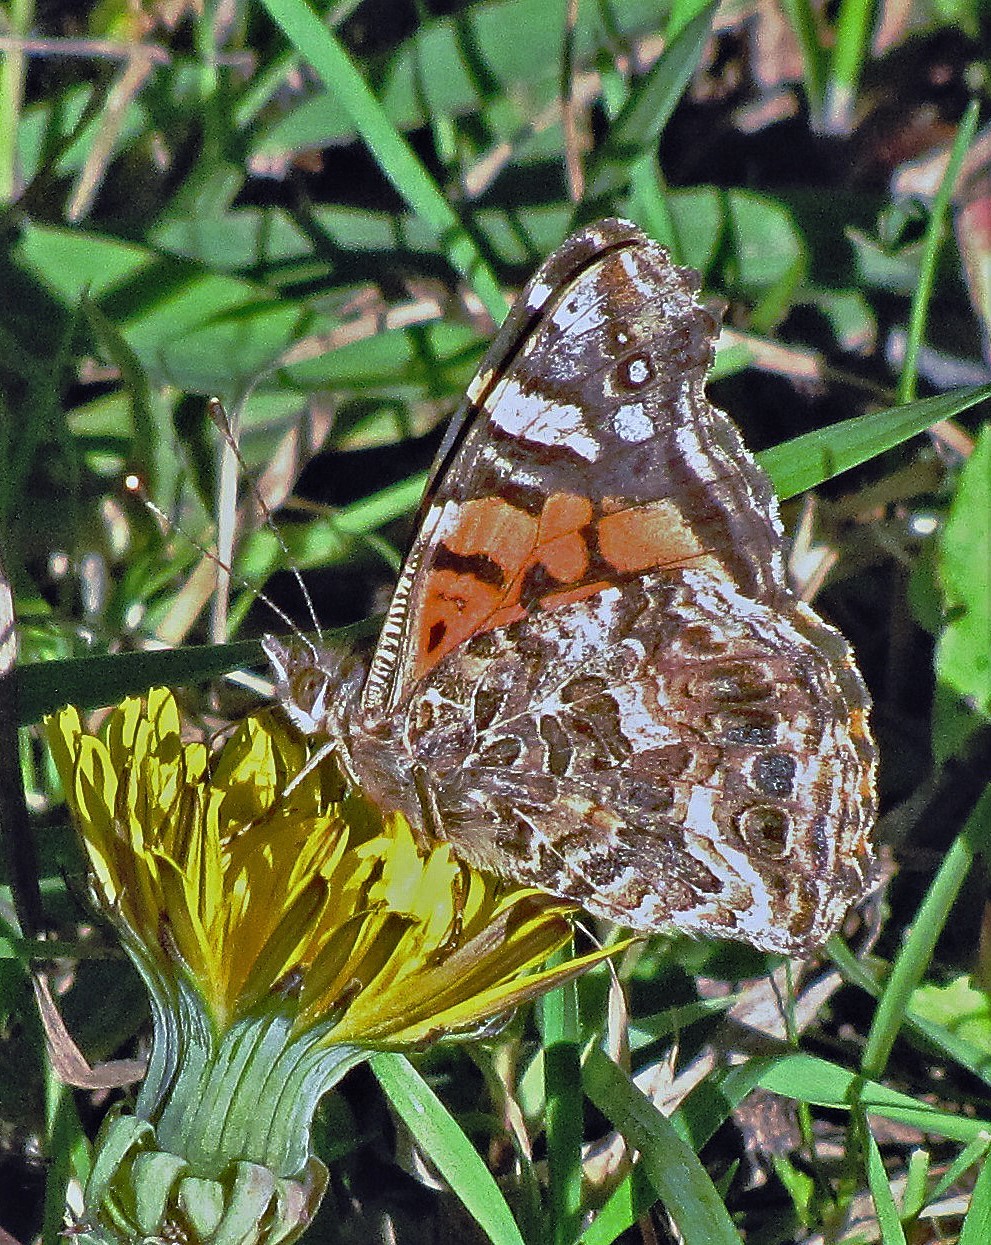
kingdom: Animalia
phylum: Arthropoda
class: Insecta
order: Lepidoptera
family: Nymphalidae
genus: Vanessa
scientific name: Vanessa carye
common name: Subtropical lady
